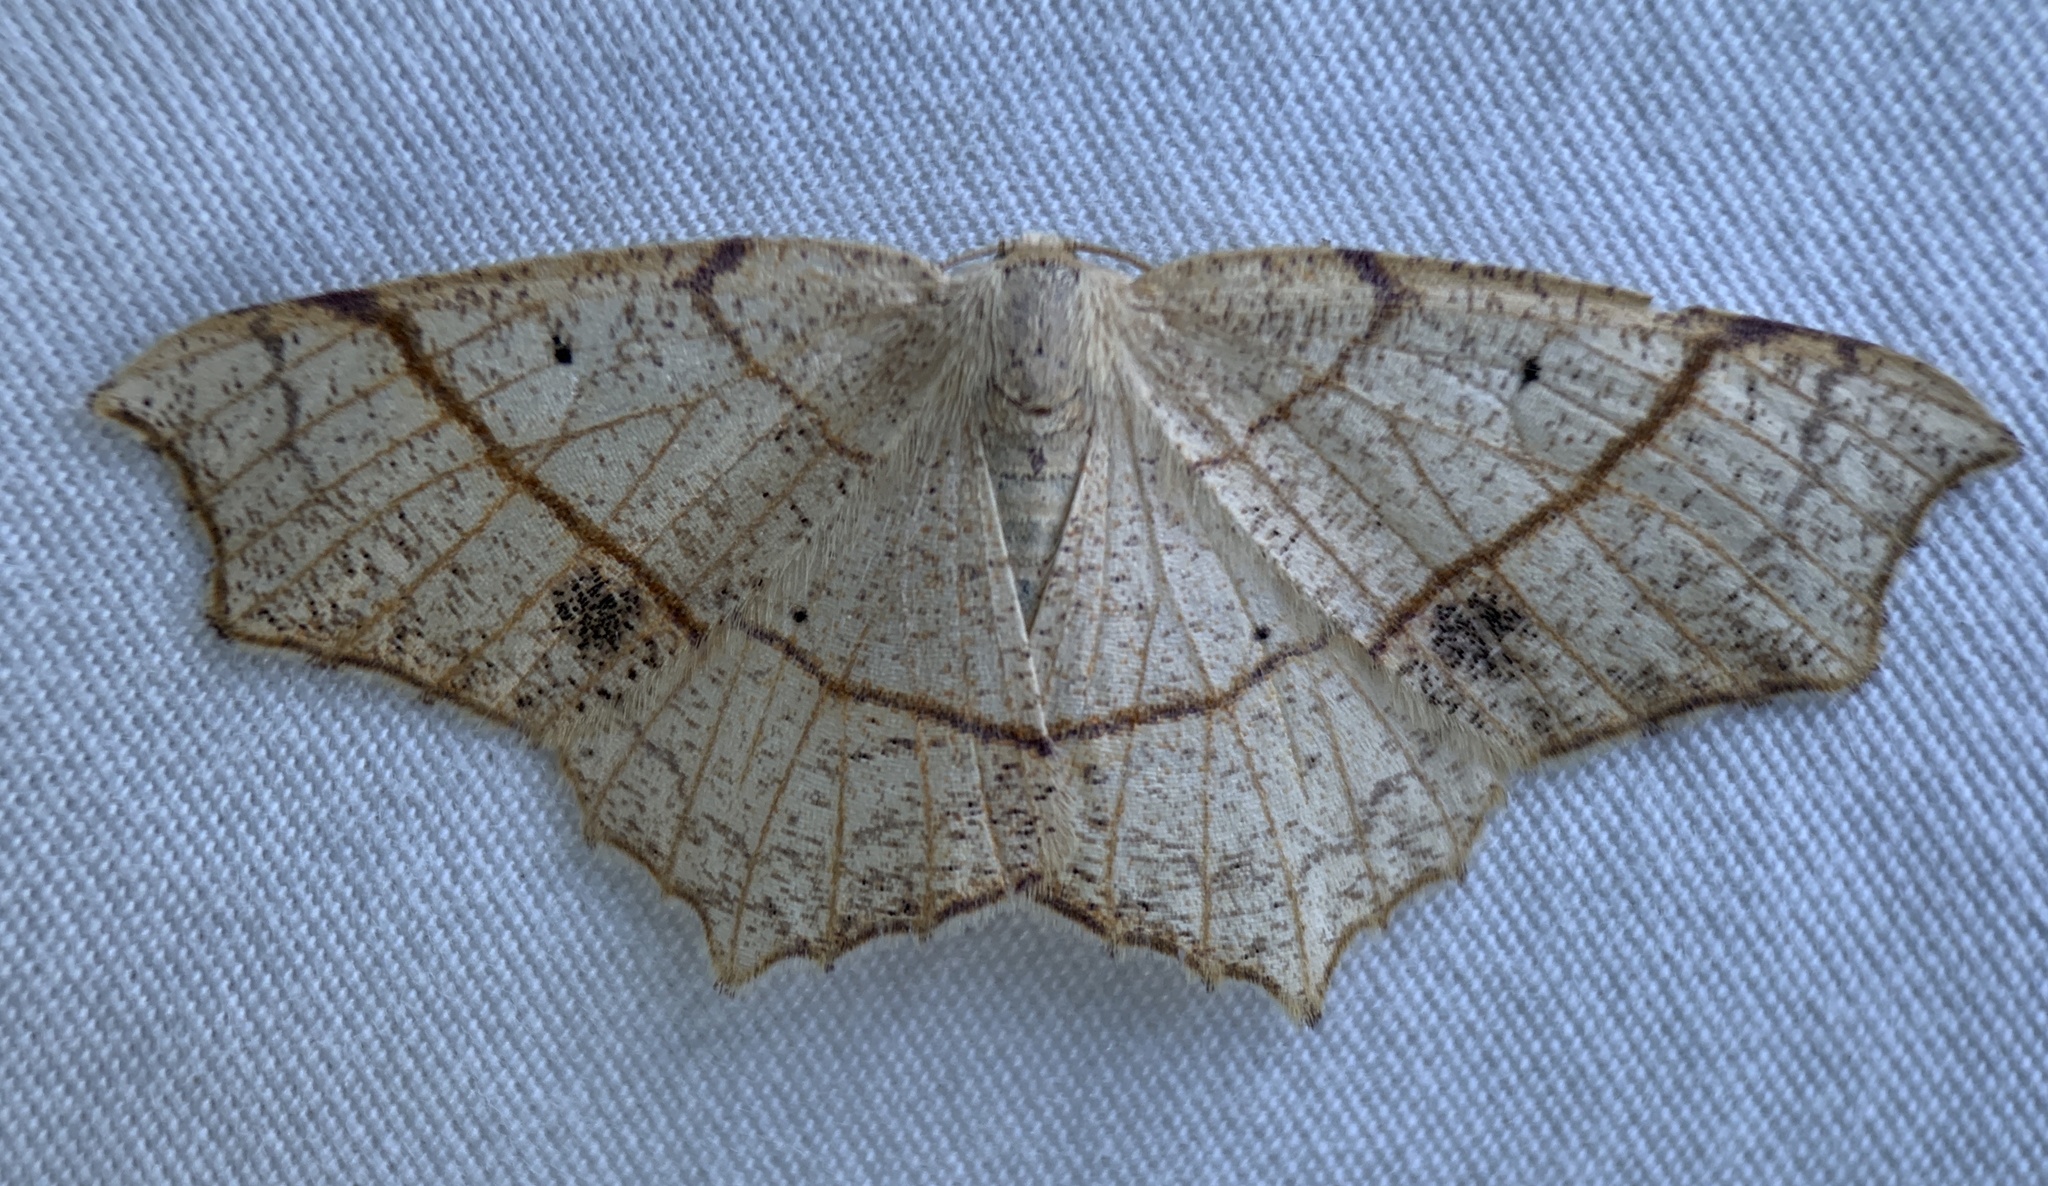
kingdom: Animalia
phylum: Arthropoda
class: Insecta
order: Lepidoptera
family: Geometridae
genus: Besma
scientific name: Besma quercivoraria
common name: Oak besma
